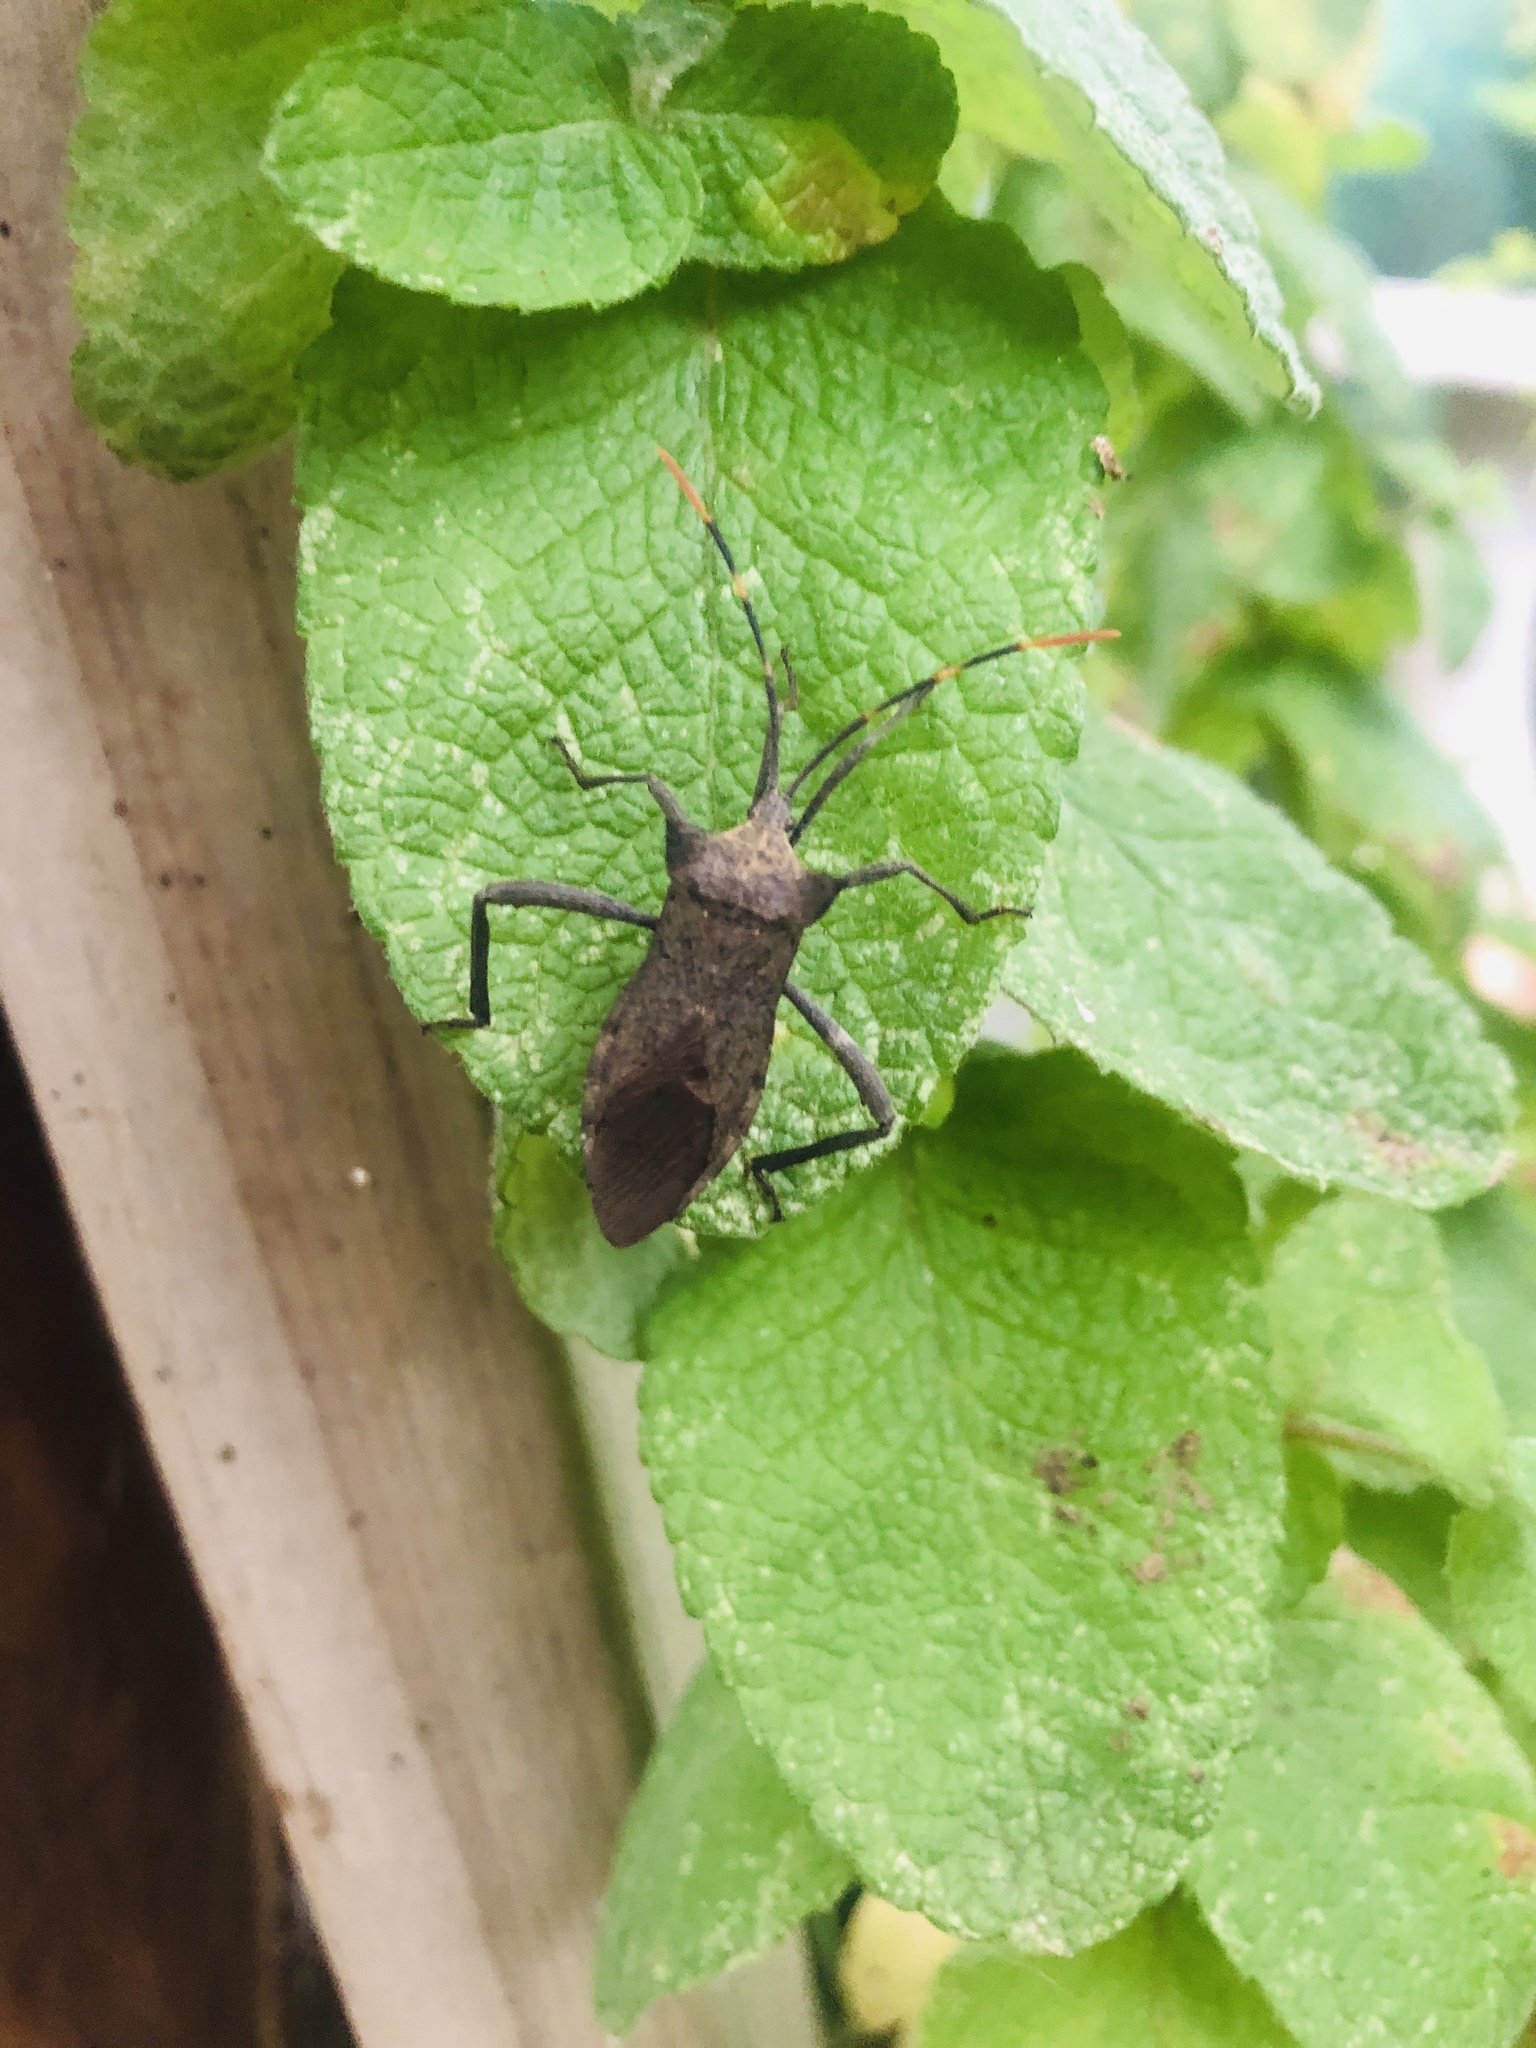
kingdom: Animalia
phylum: Arthropoda
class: Insecta
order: Hemiptera
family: Coreidae
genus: Elasmopoda
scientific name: Elasmopoda valga
